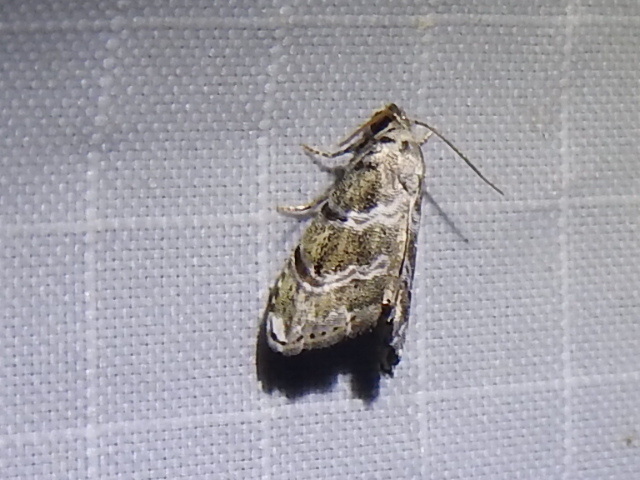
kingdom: Animalia
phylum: Arthropoda
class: Insecta
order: Lepidoptera
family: Noctuidae
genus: Abablemma
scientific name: Abablemma bilineata
